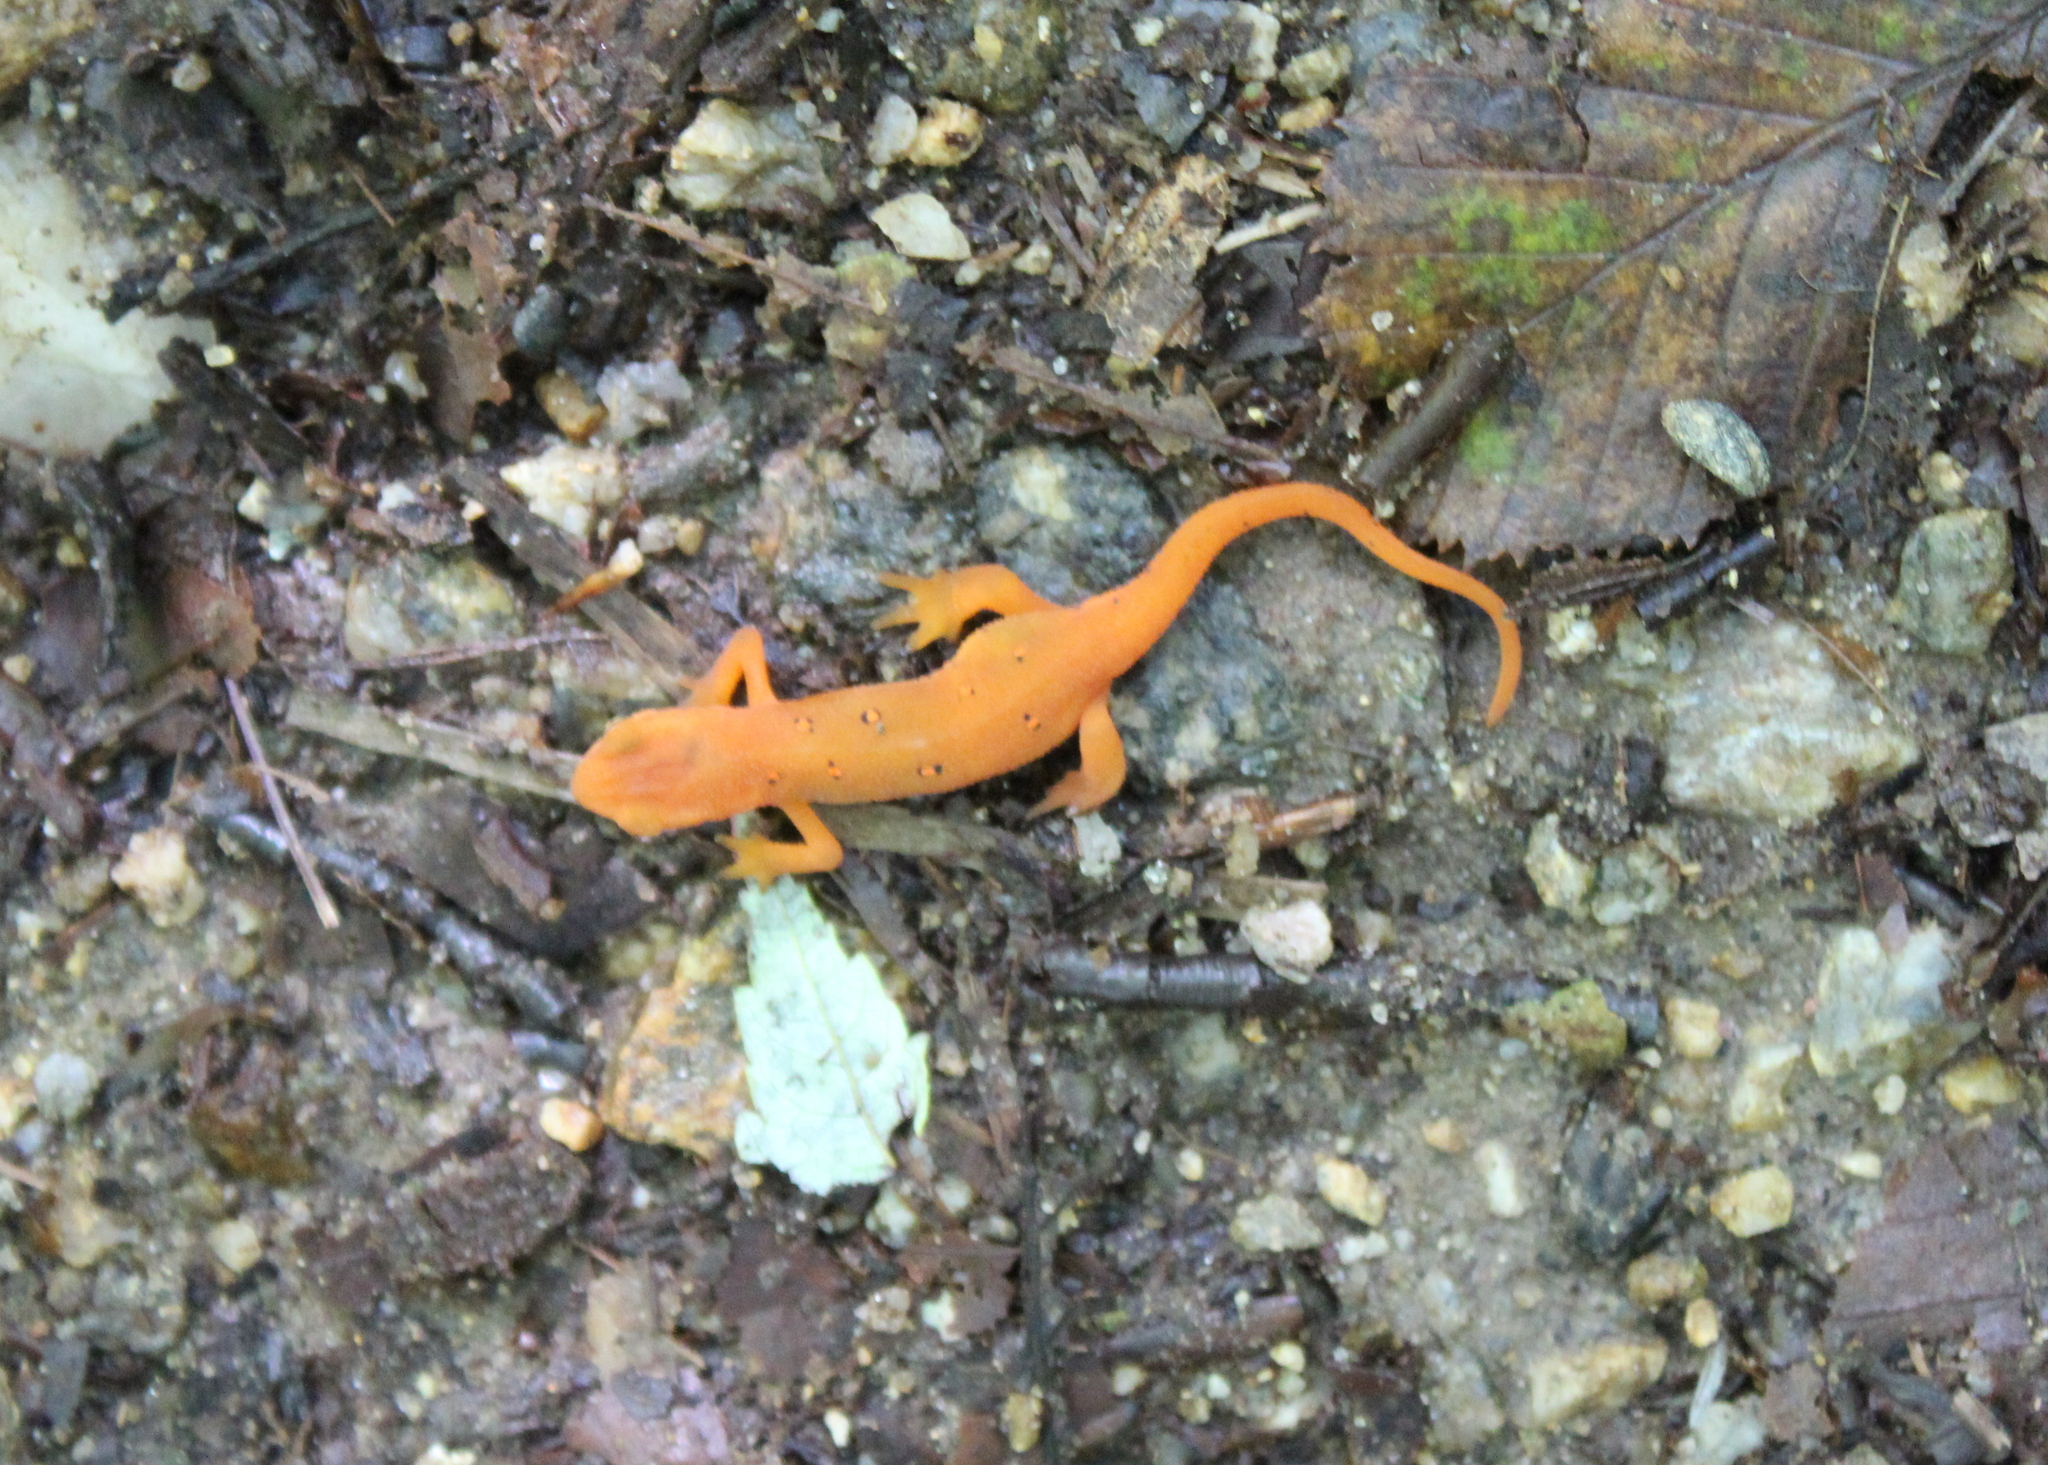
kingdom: Animalia
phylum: Chordata
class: Amphibia
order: Caudata
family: Salamandridae
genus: Notophthalmus
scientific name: Notophthalmus viridescens
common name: Eastern newt
